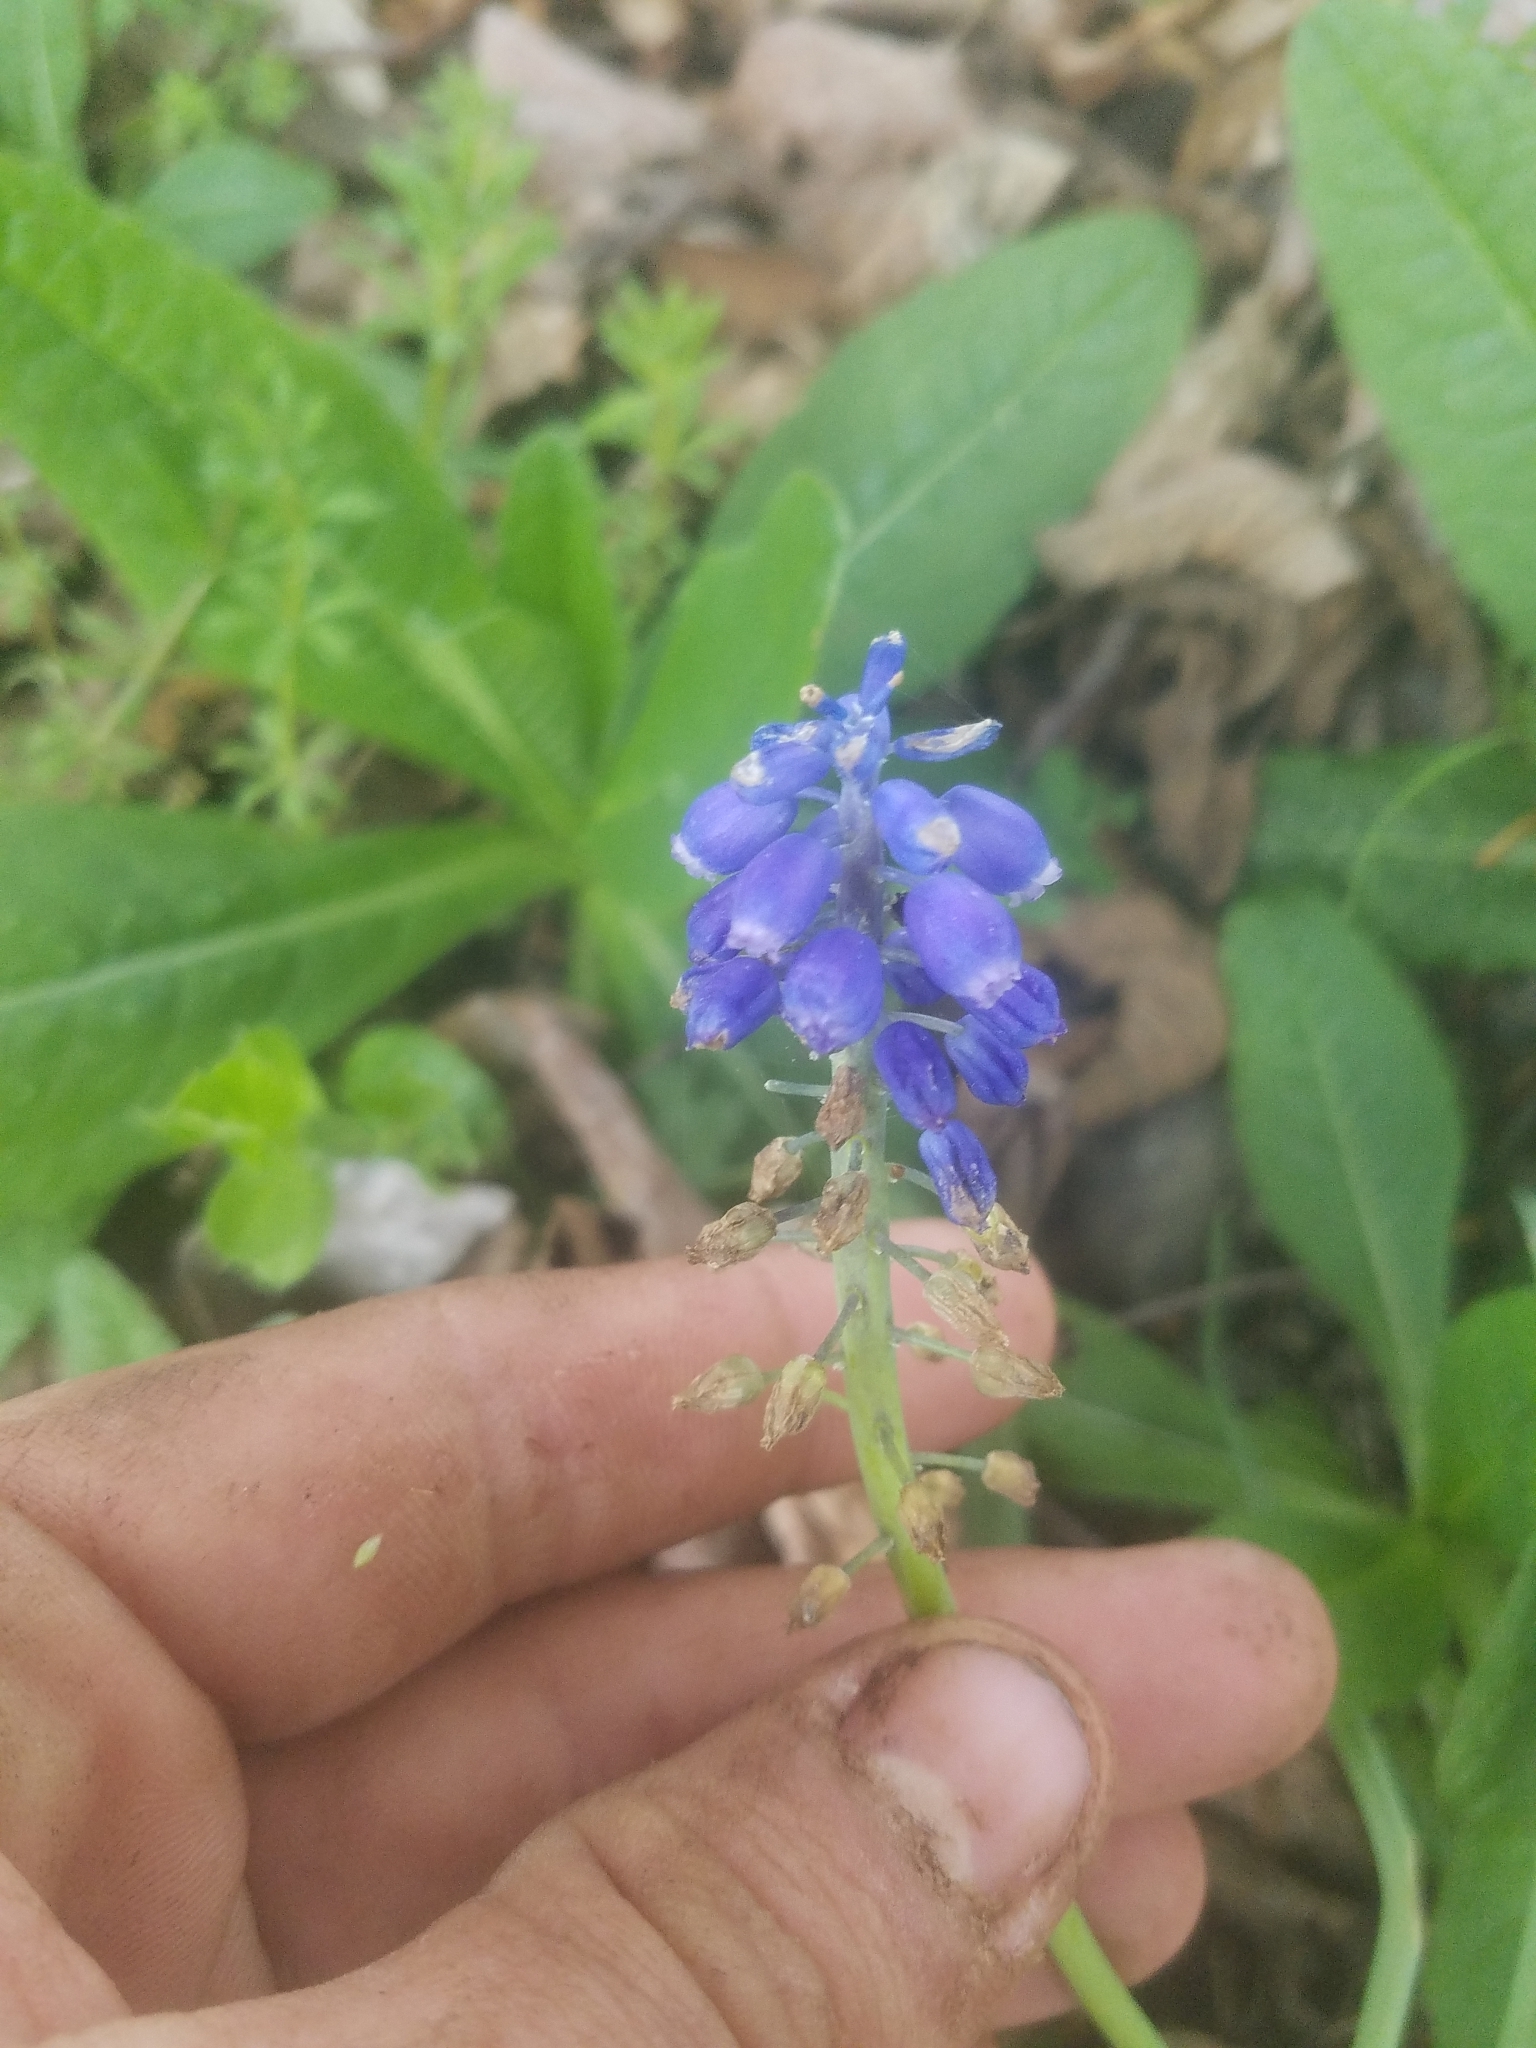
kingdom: Plantae
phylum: Tracheophyta
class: Liliopsida
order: Asparagales
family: Asparagaceae
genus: Muscari
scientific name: Muscari neglectum
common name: Grape-hyacinth
